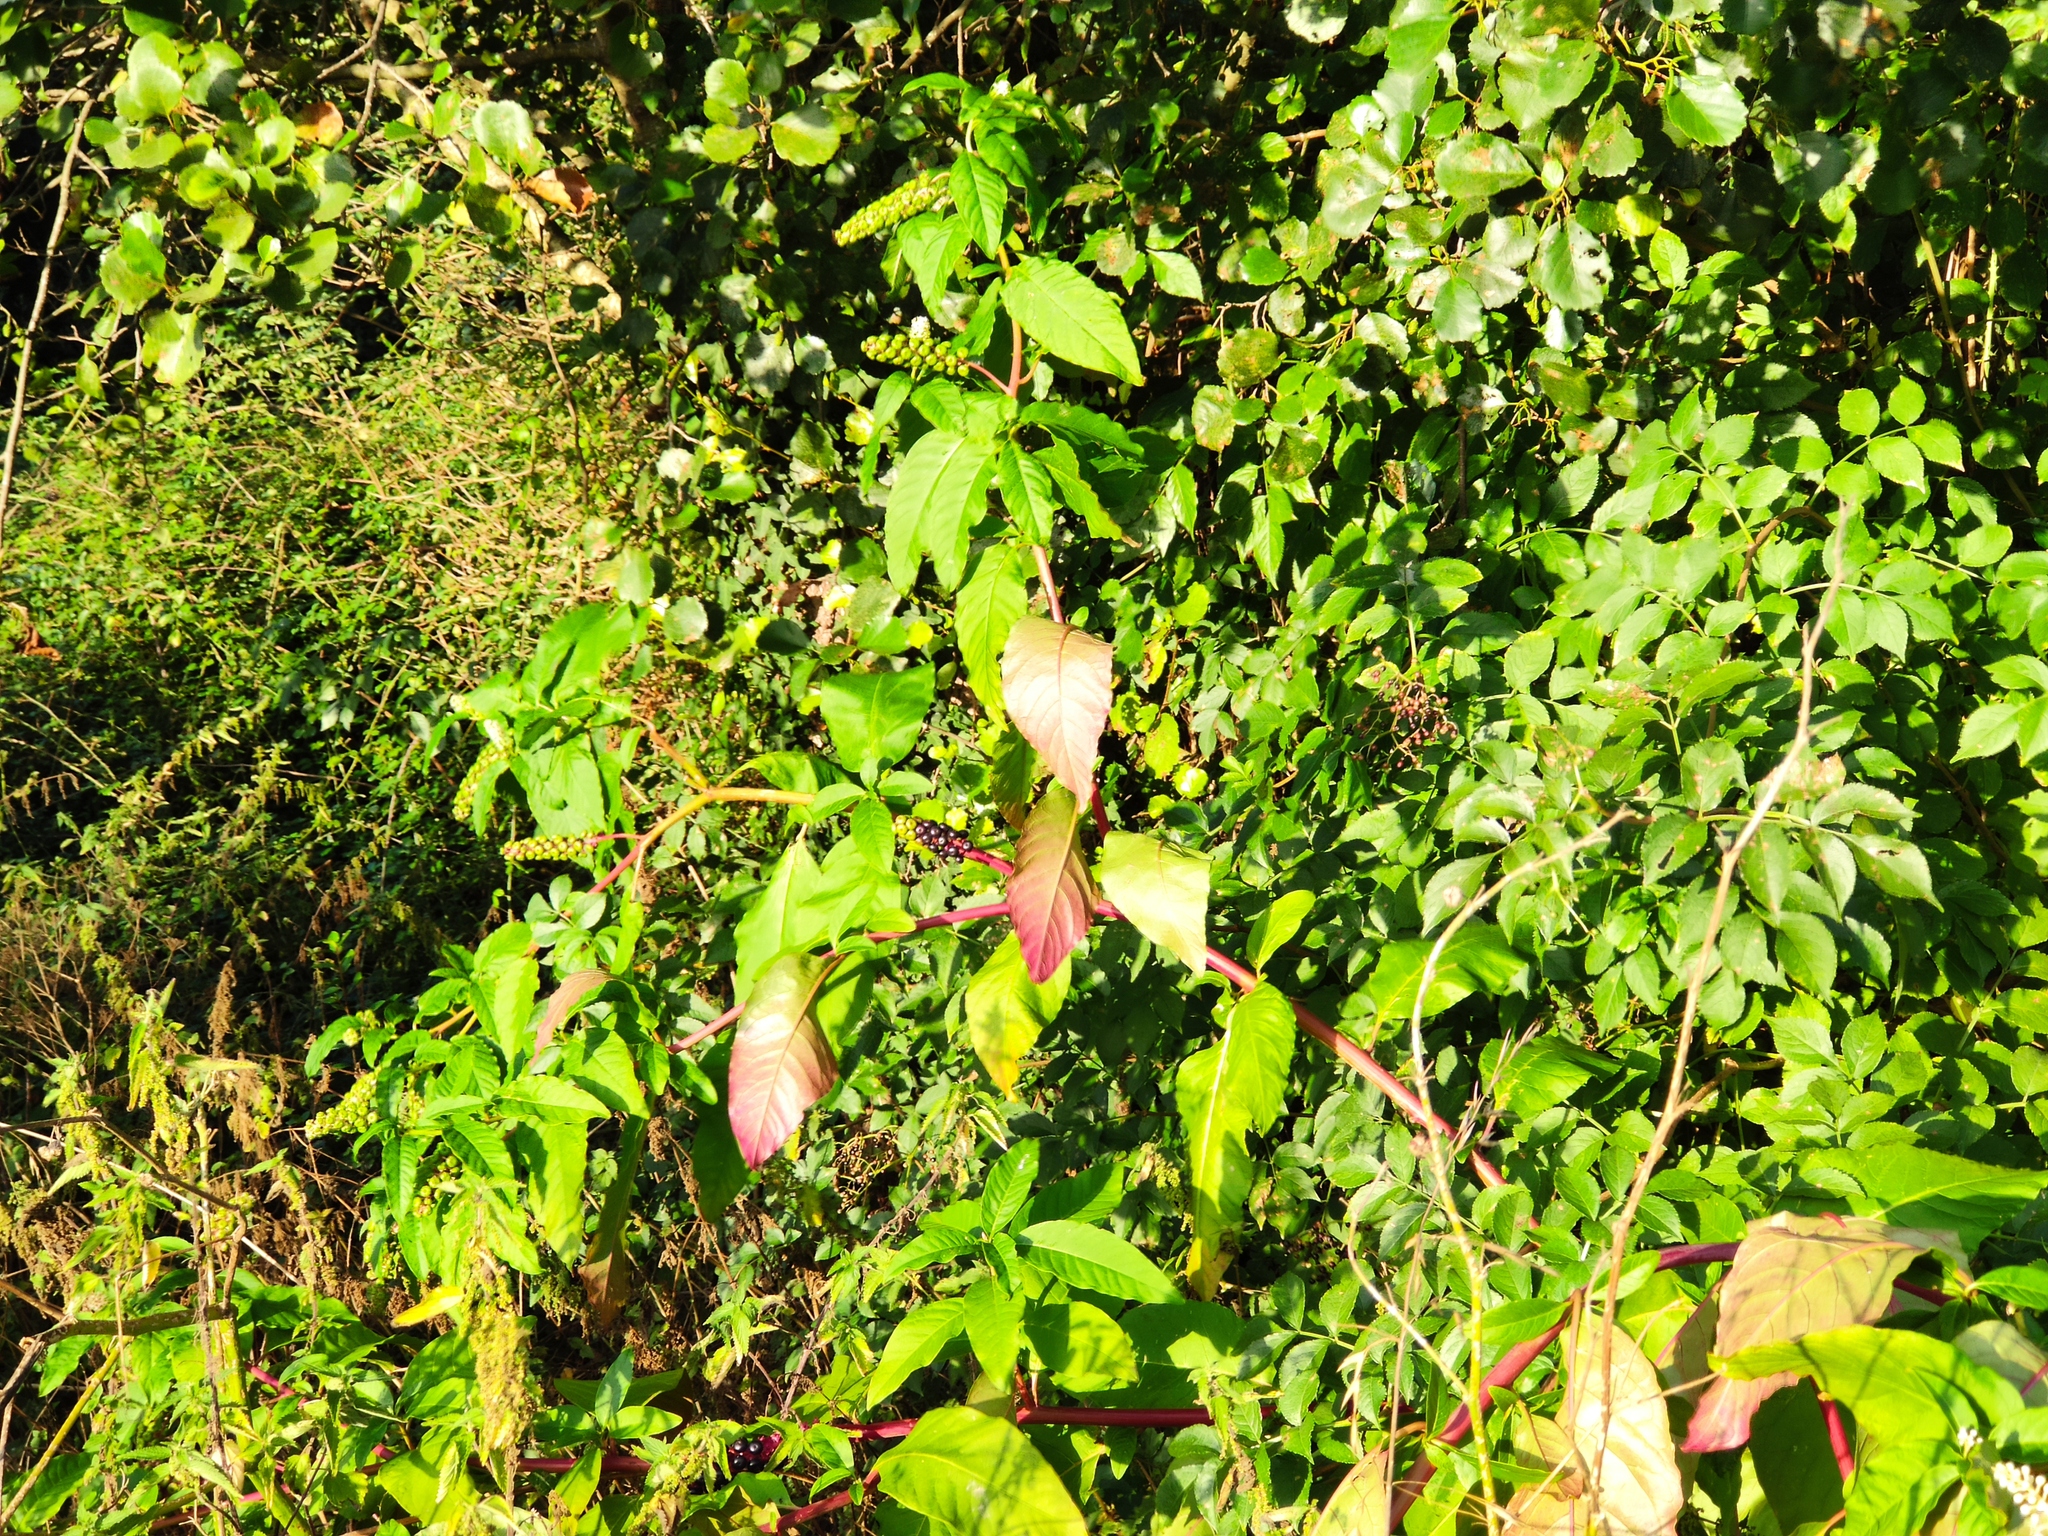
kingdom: Plantae
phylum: Tracheophyta
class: Magnoliopsida
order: Caryophyllales
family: Phytolaccaceae
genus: Phytolacca
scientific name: Phytolacca americana
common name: American pokeweed
